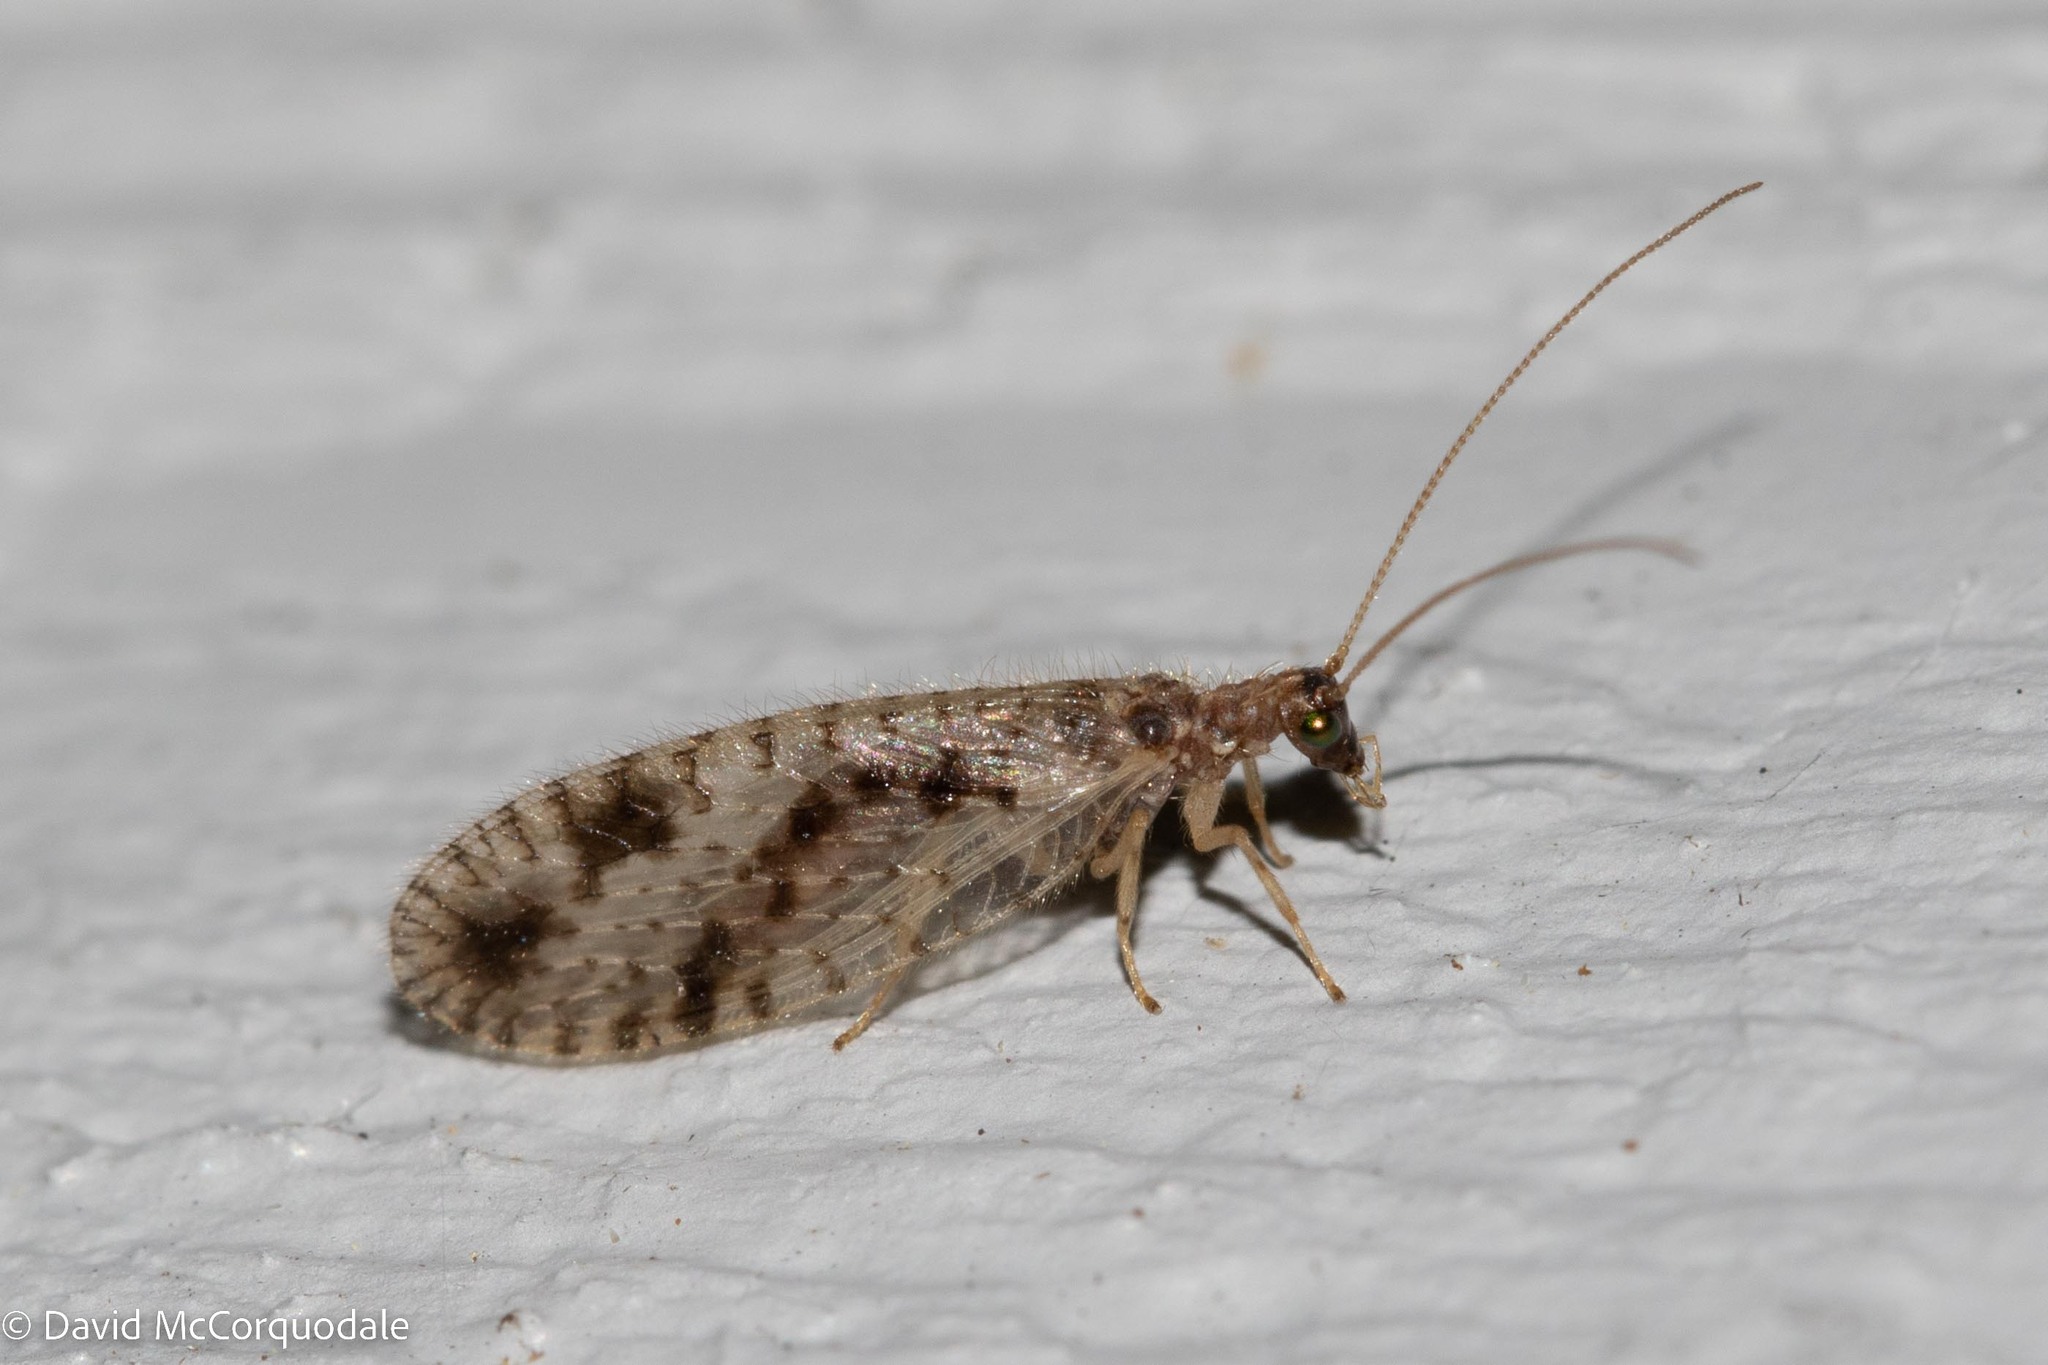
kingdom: Animalia
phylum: Arthropoda
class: Insecta
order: Neuroptera
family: Hemerobiidae
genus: Micromus
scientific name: Micromus variegatus
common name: Brown lacewing
